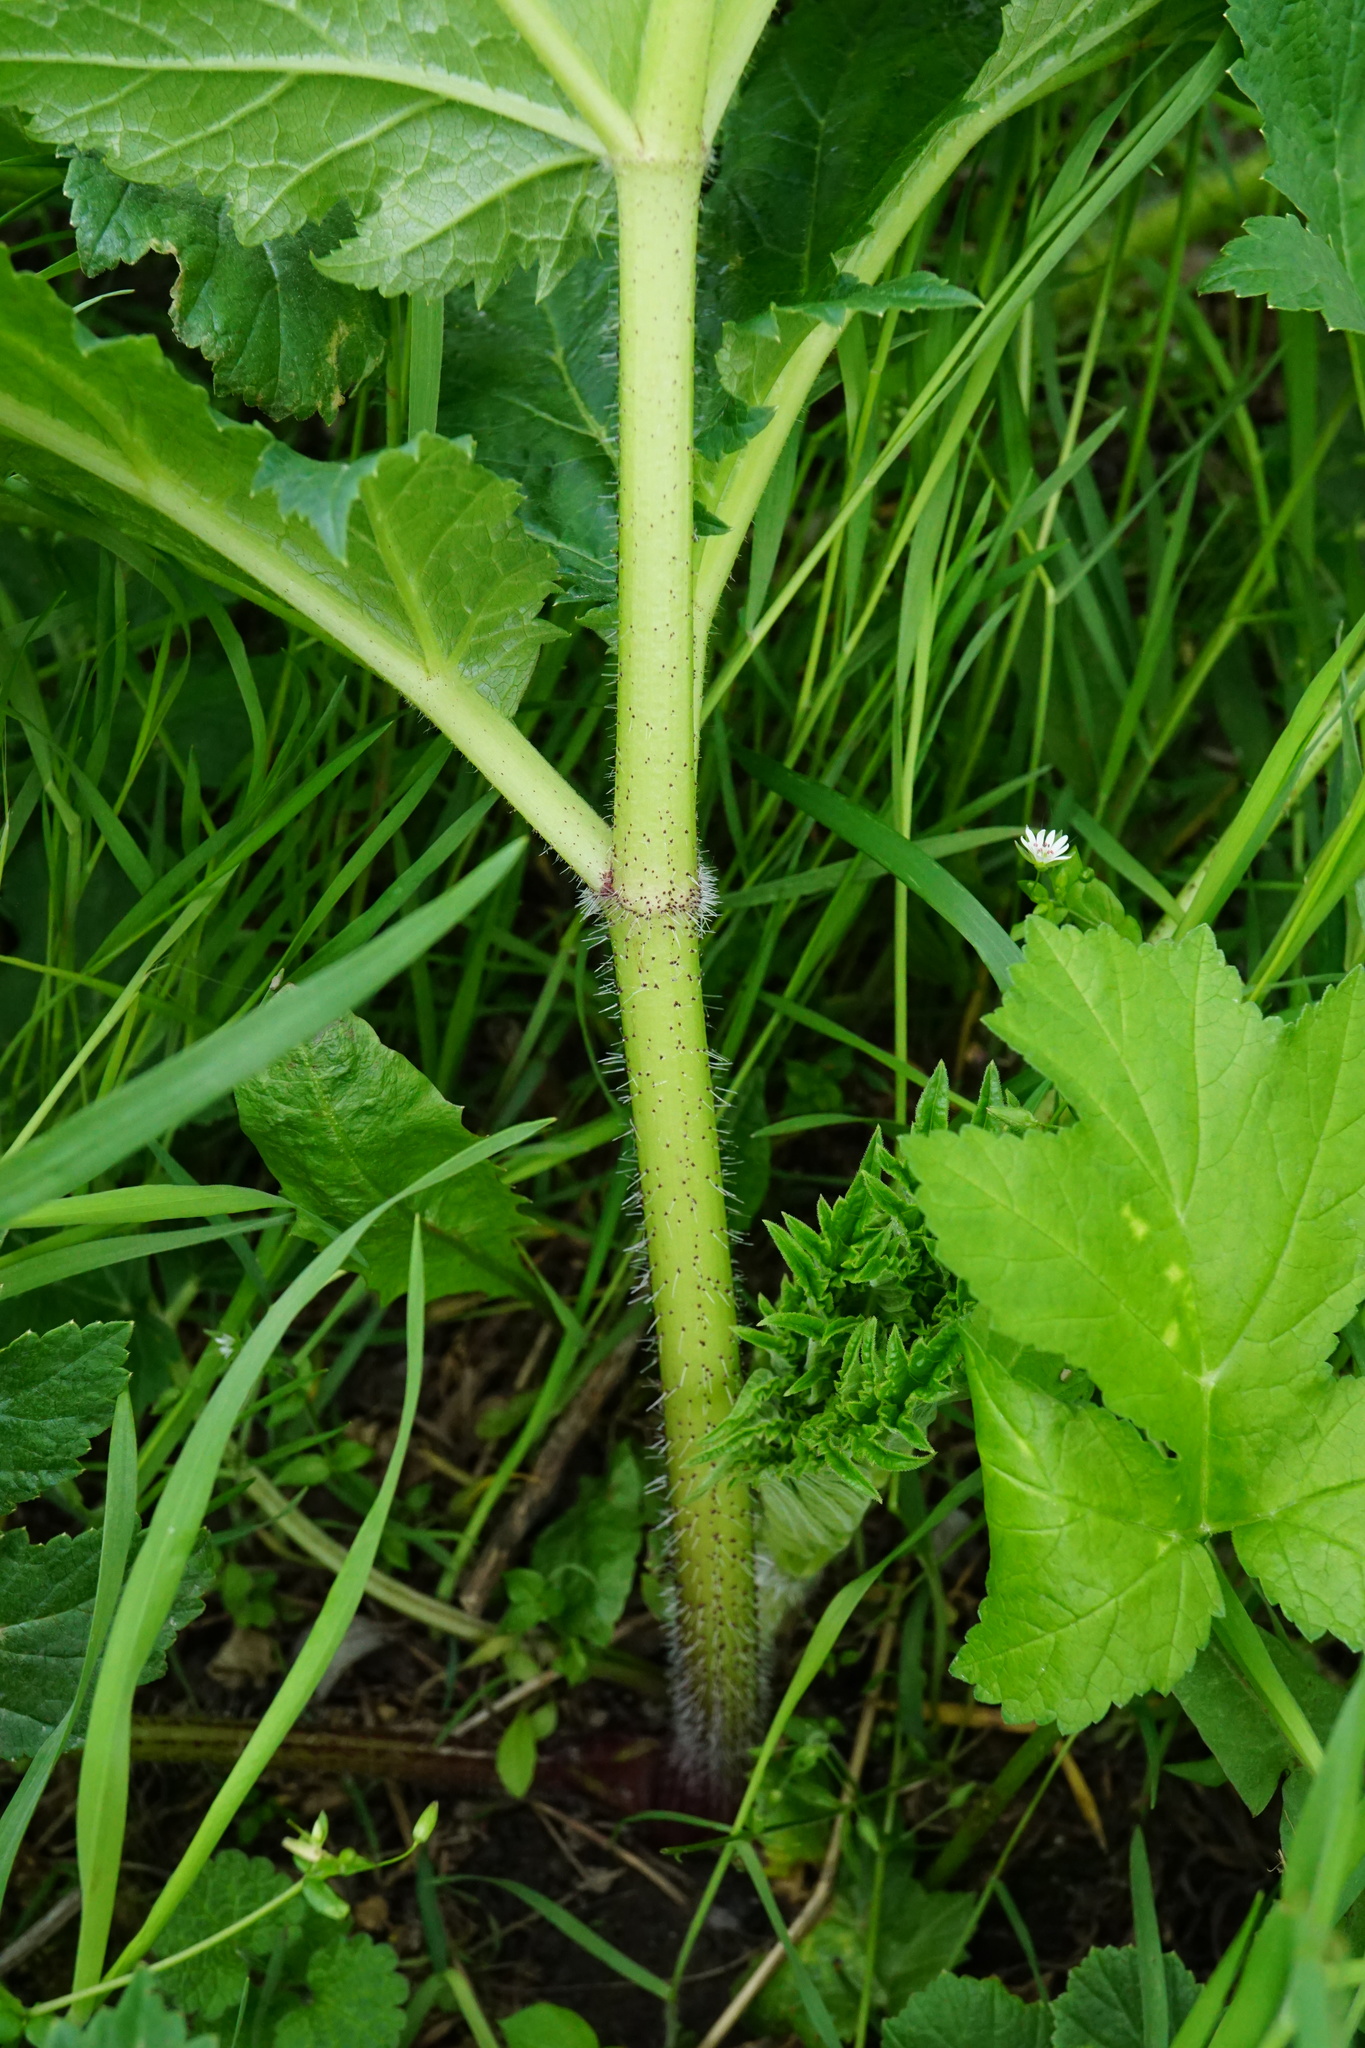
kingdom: Plantae
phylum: Tracheophyta
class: Magnoliopsida
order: Apiales
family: Apiaceae
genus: Heracleum
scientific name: Heracleum mantegazzianum
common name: Giant hogweed
